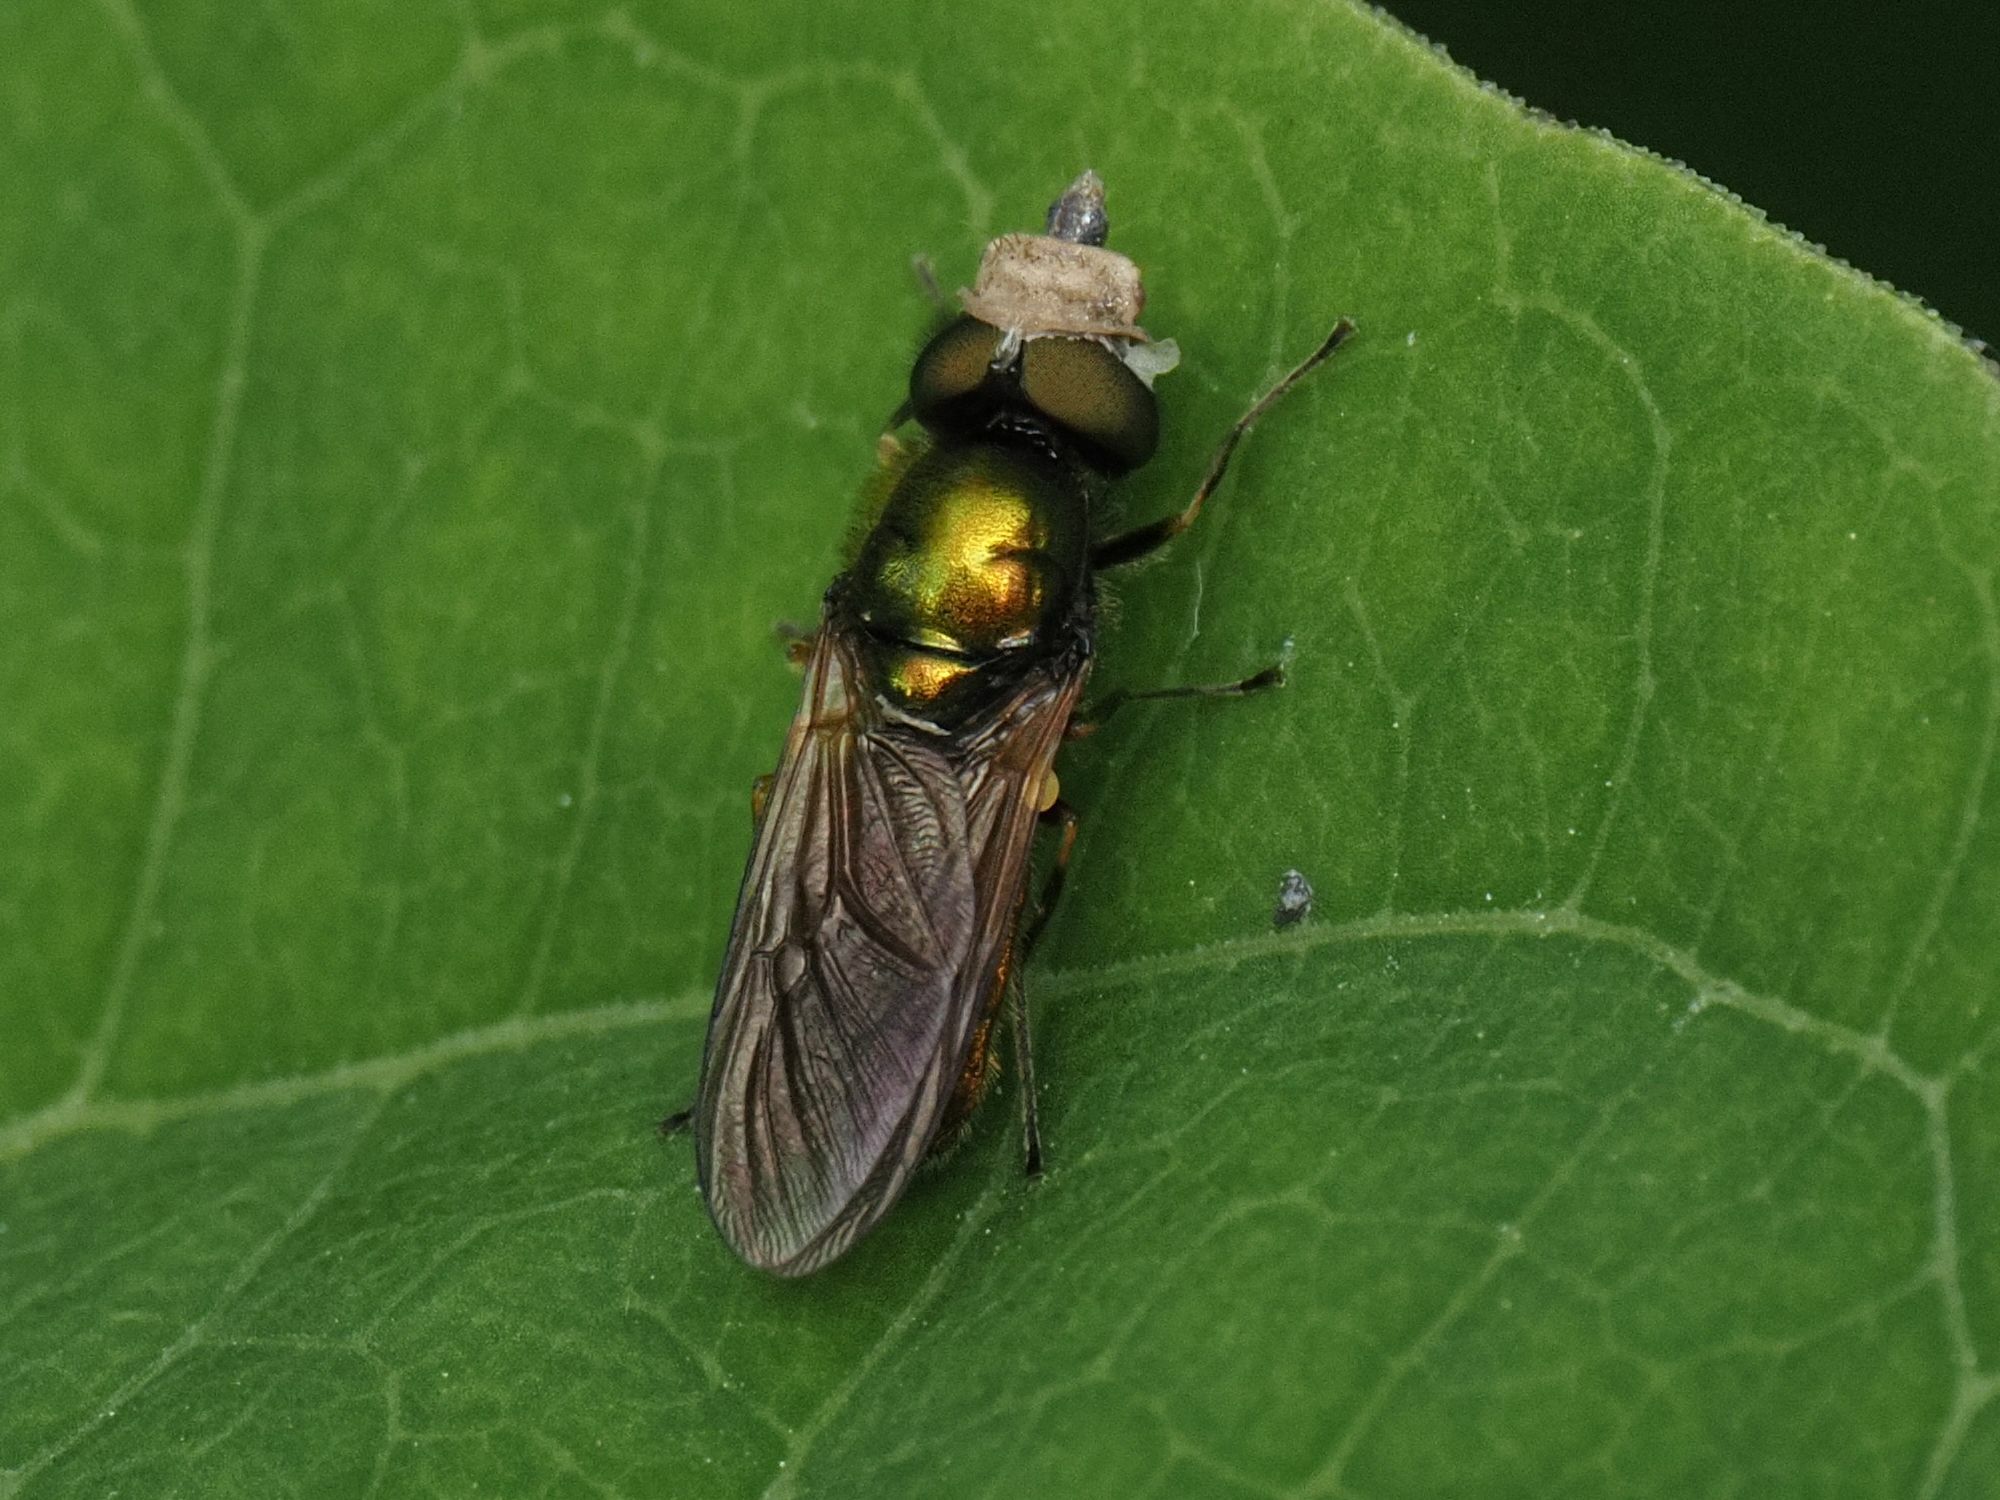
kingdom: Animalia
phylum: Arthropoda
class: Insecta
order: Diptera
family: Stratiomyidae
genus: Chloromyia
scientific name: Chloromyia formosa
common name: Soldier fly
